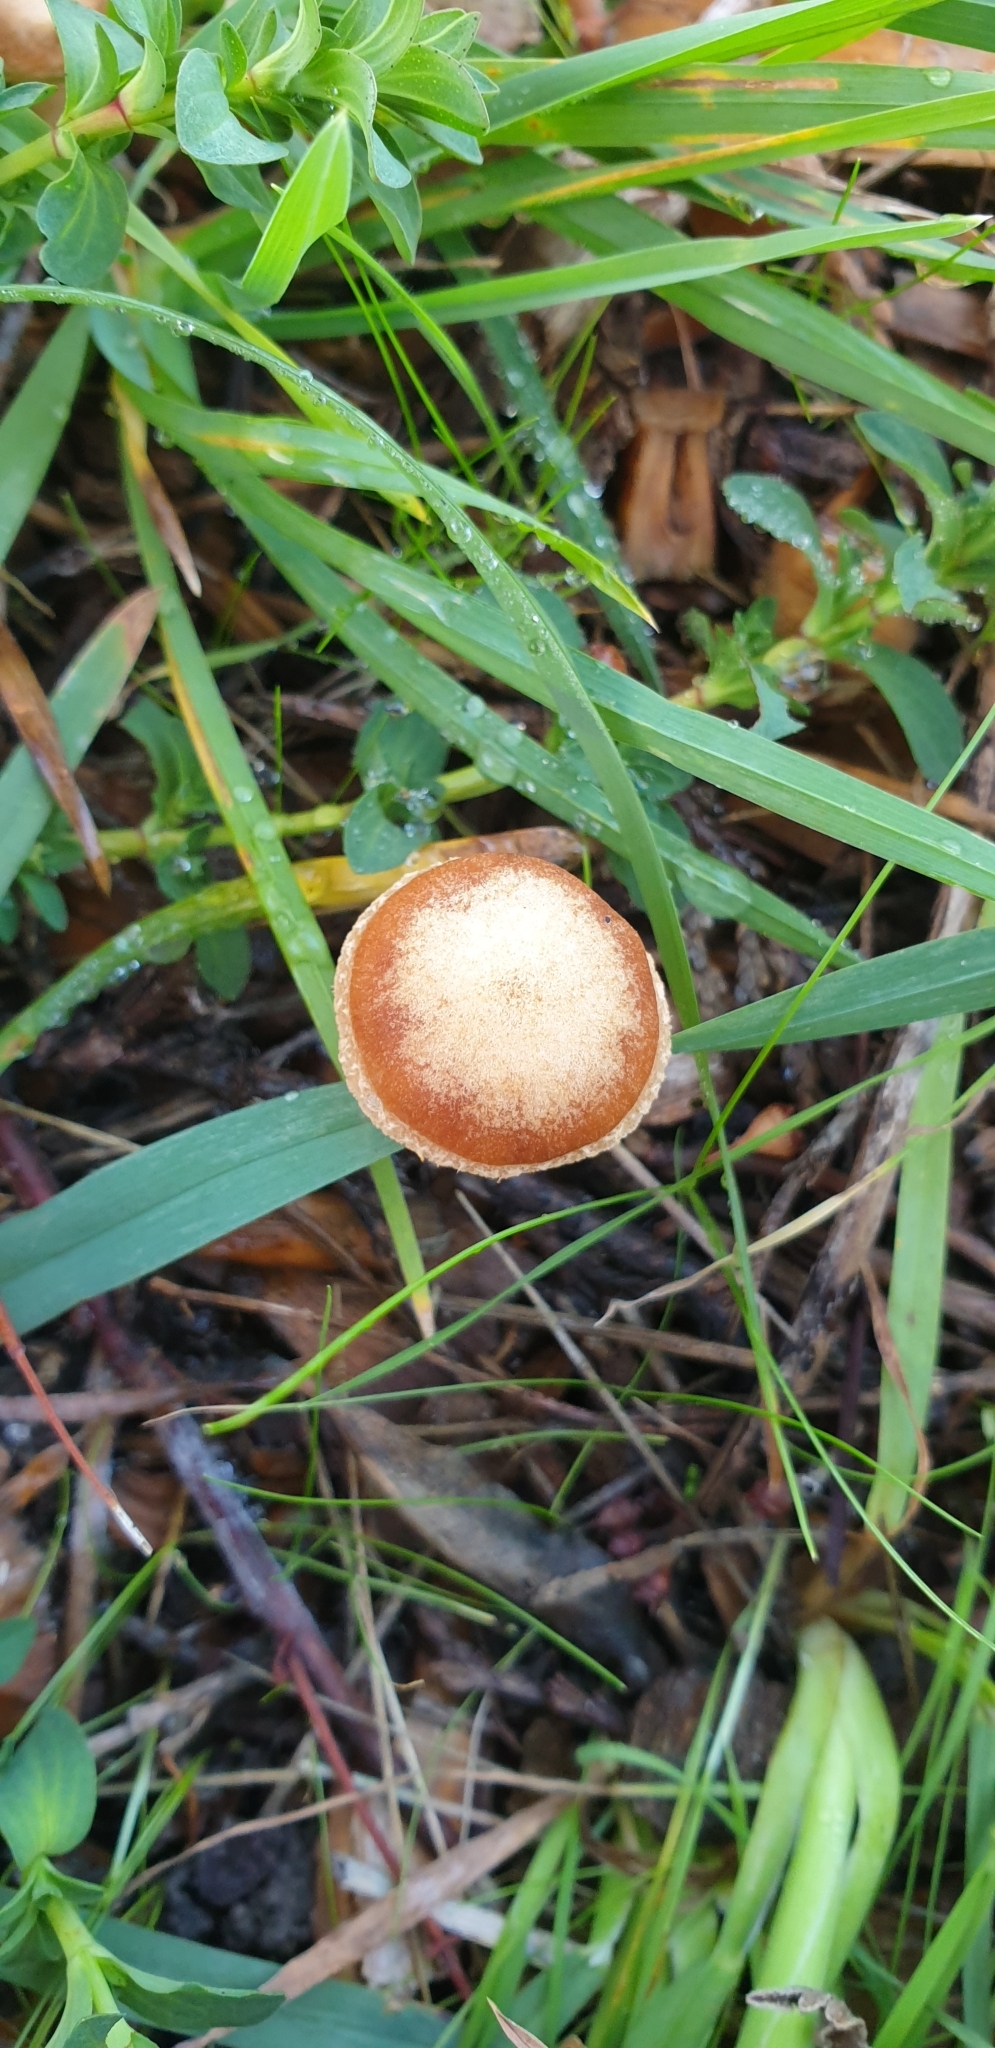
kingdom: Fungi
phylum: Basidiomycota
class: Agaricomycetes
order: Agaricales
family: Tubariaceae
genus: Tubaria
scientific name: Tubaria furfuracea
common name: Scurfy twiglet
